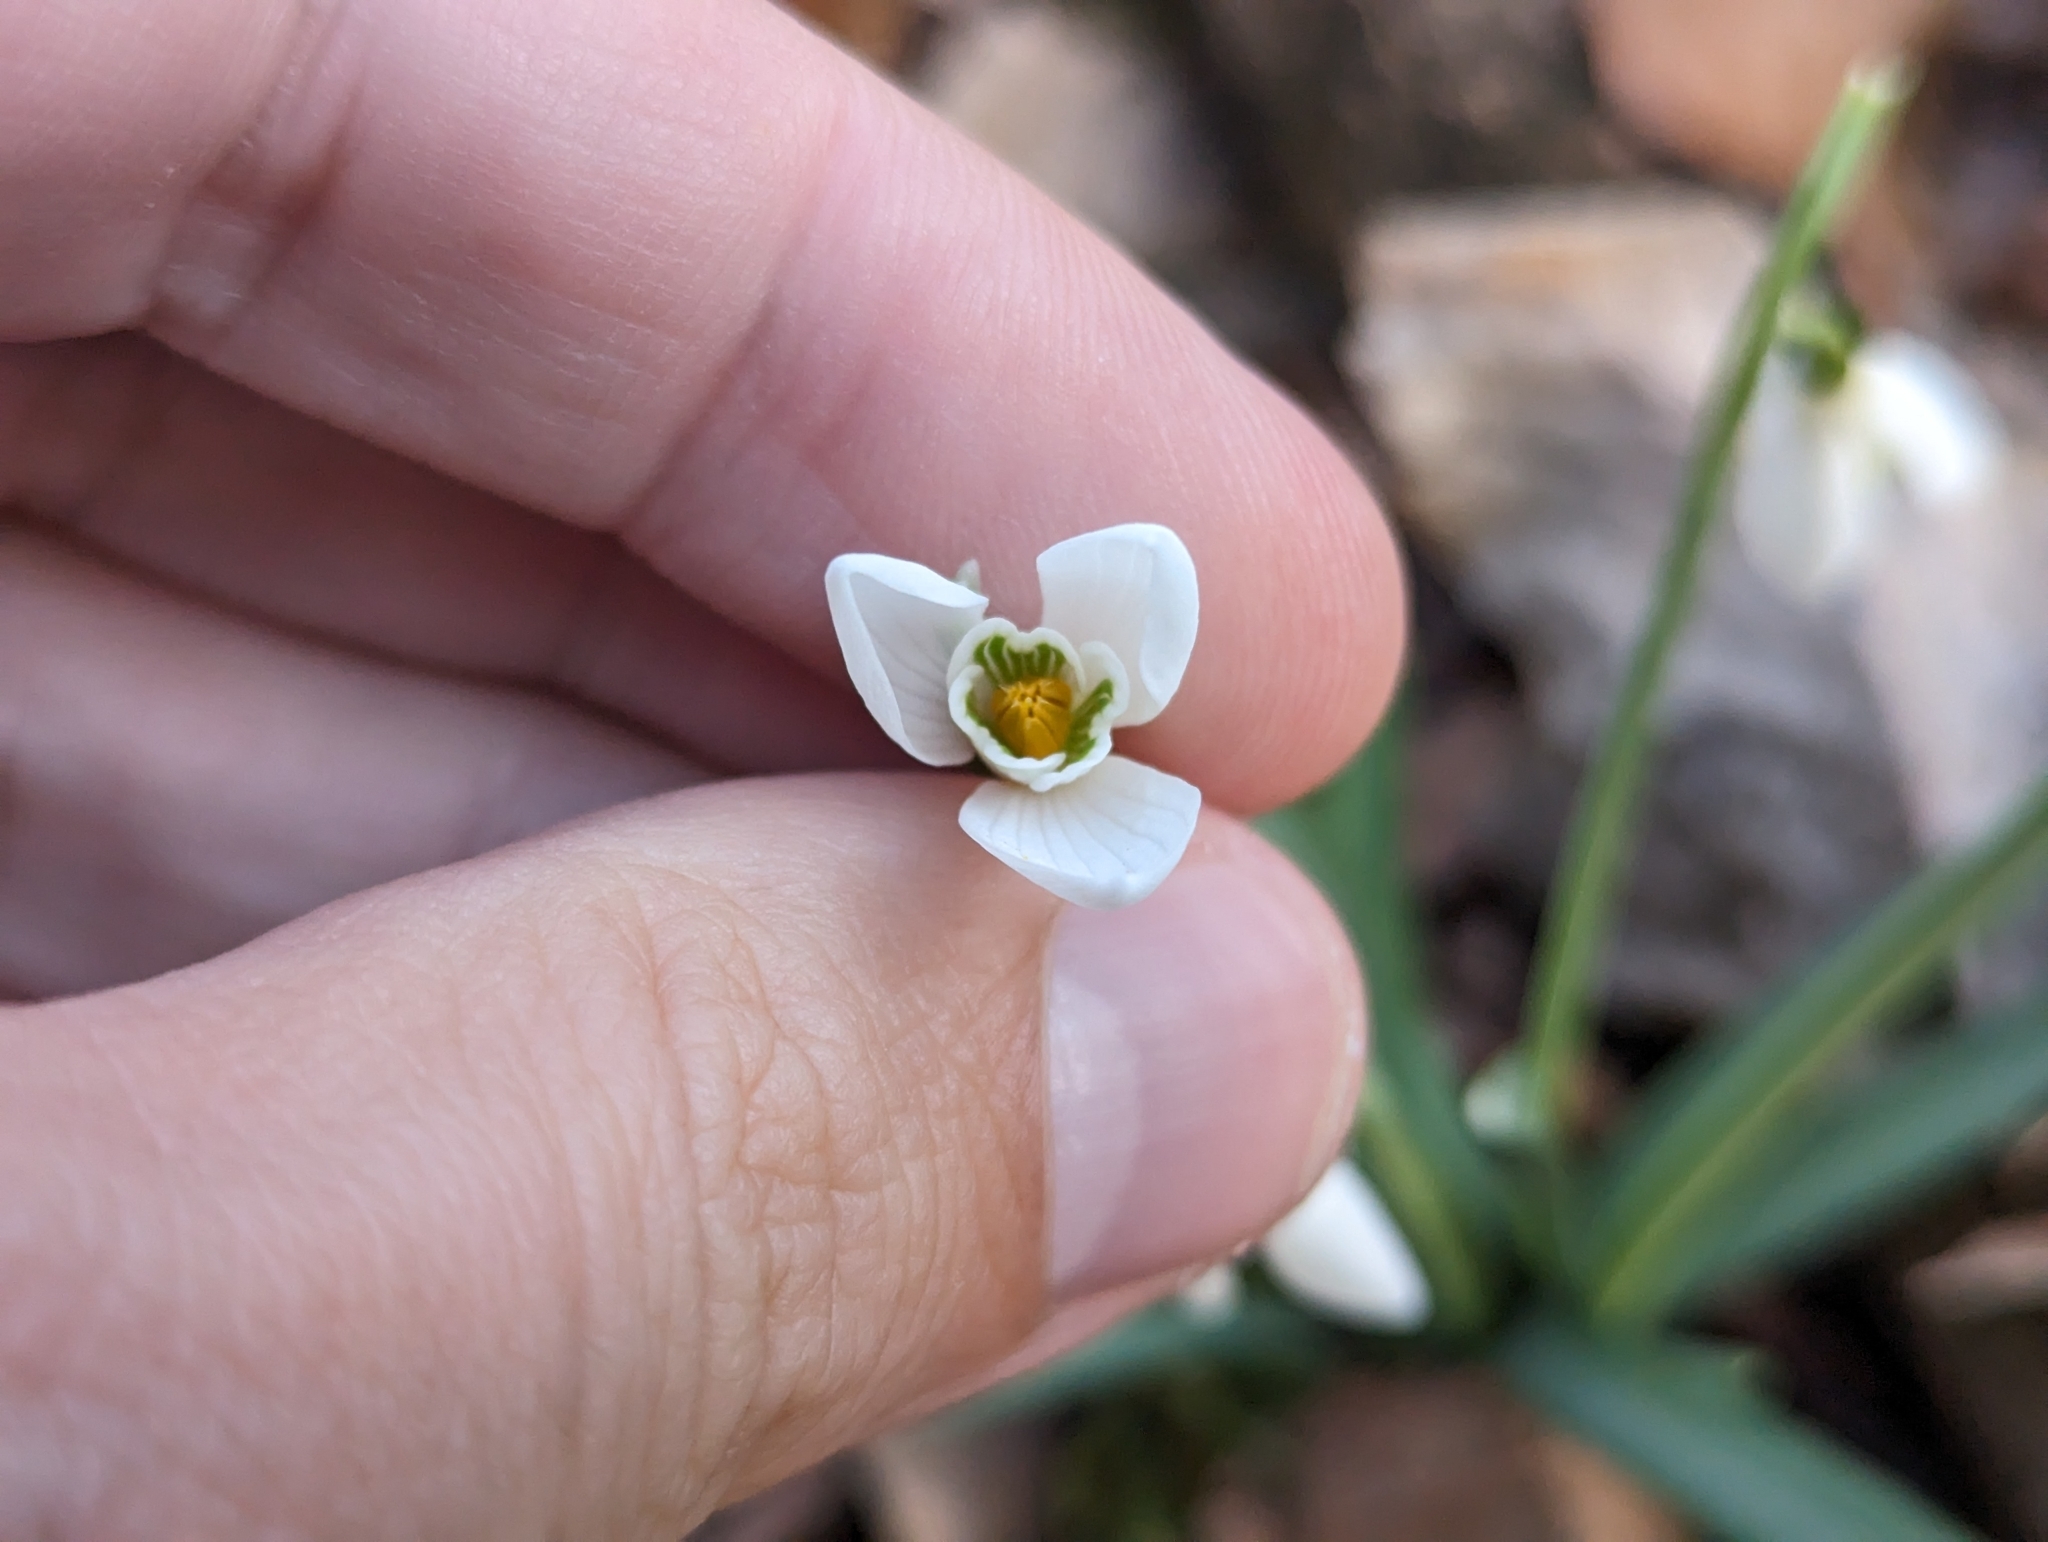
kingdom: Plantae
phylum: Tracheophyta
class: Liliopsida
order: Asparagales
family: Amaryllidaceae
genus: Galanthus
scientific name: Galanthus nivalis
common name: Snowdrop
